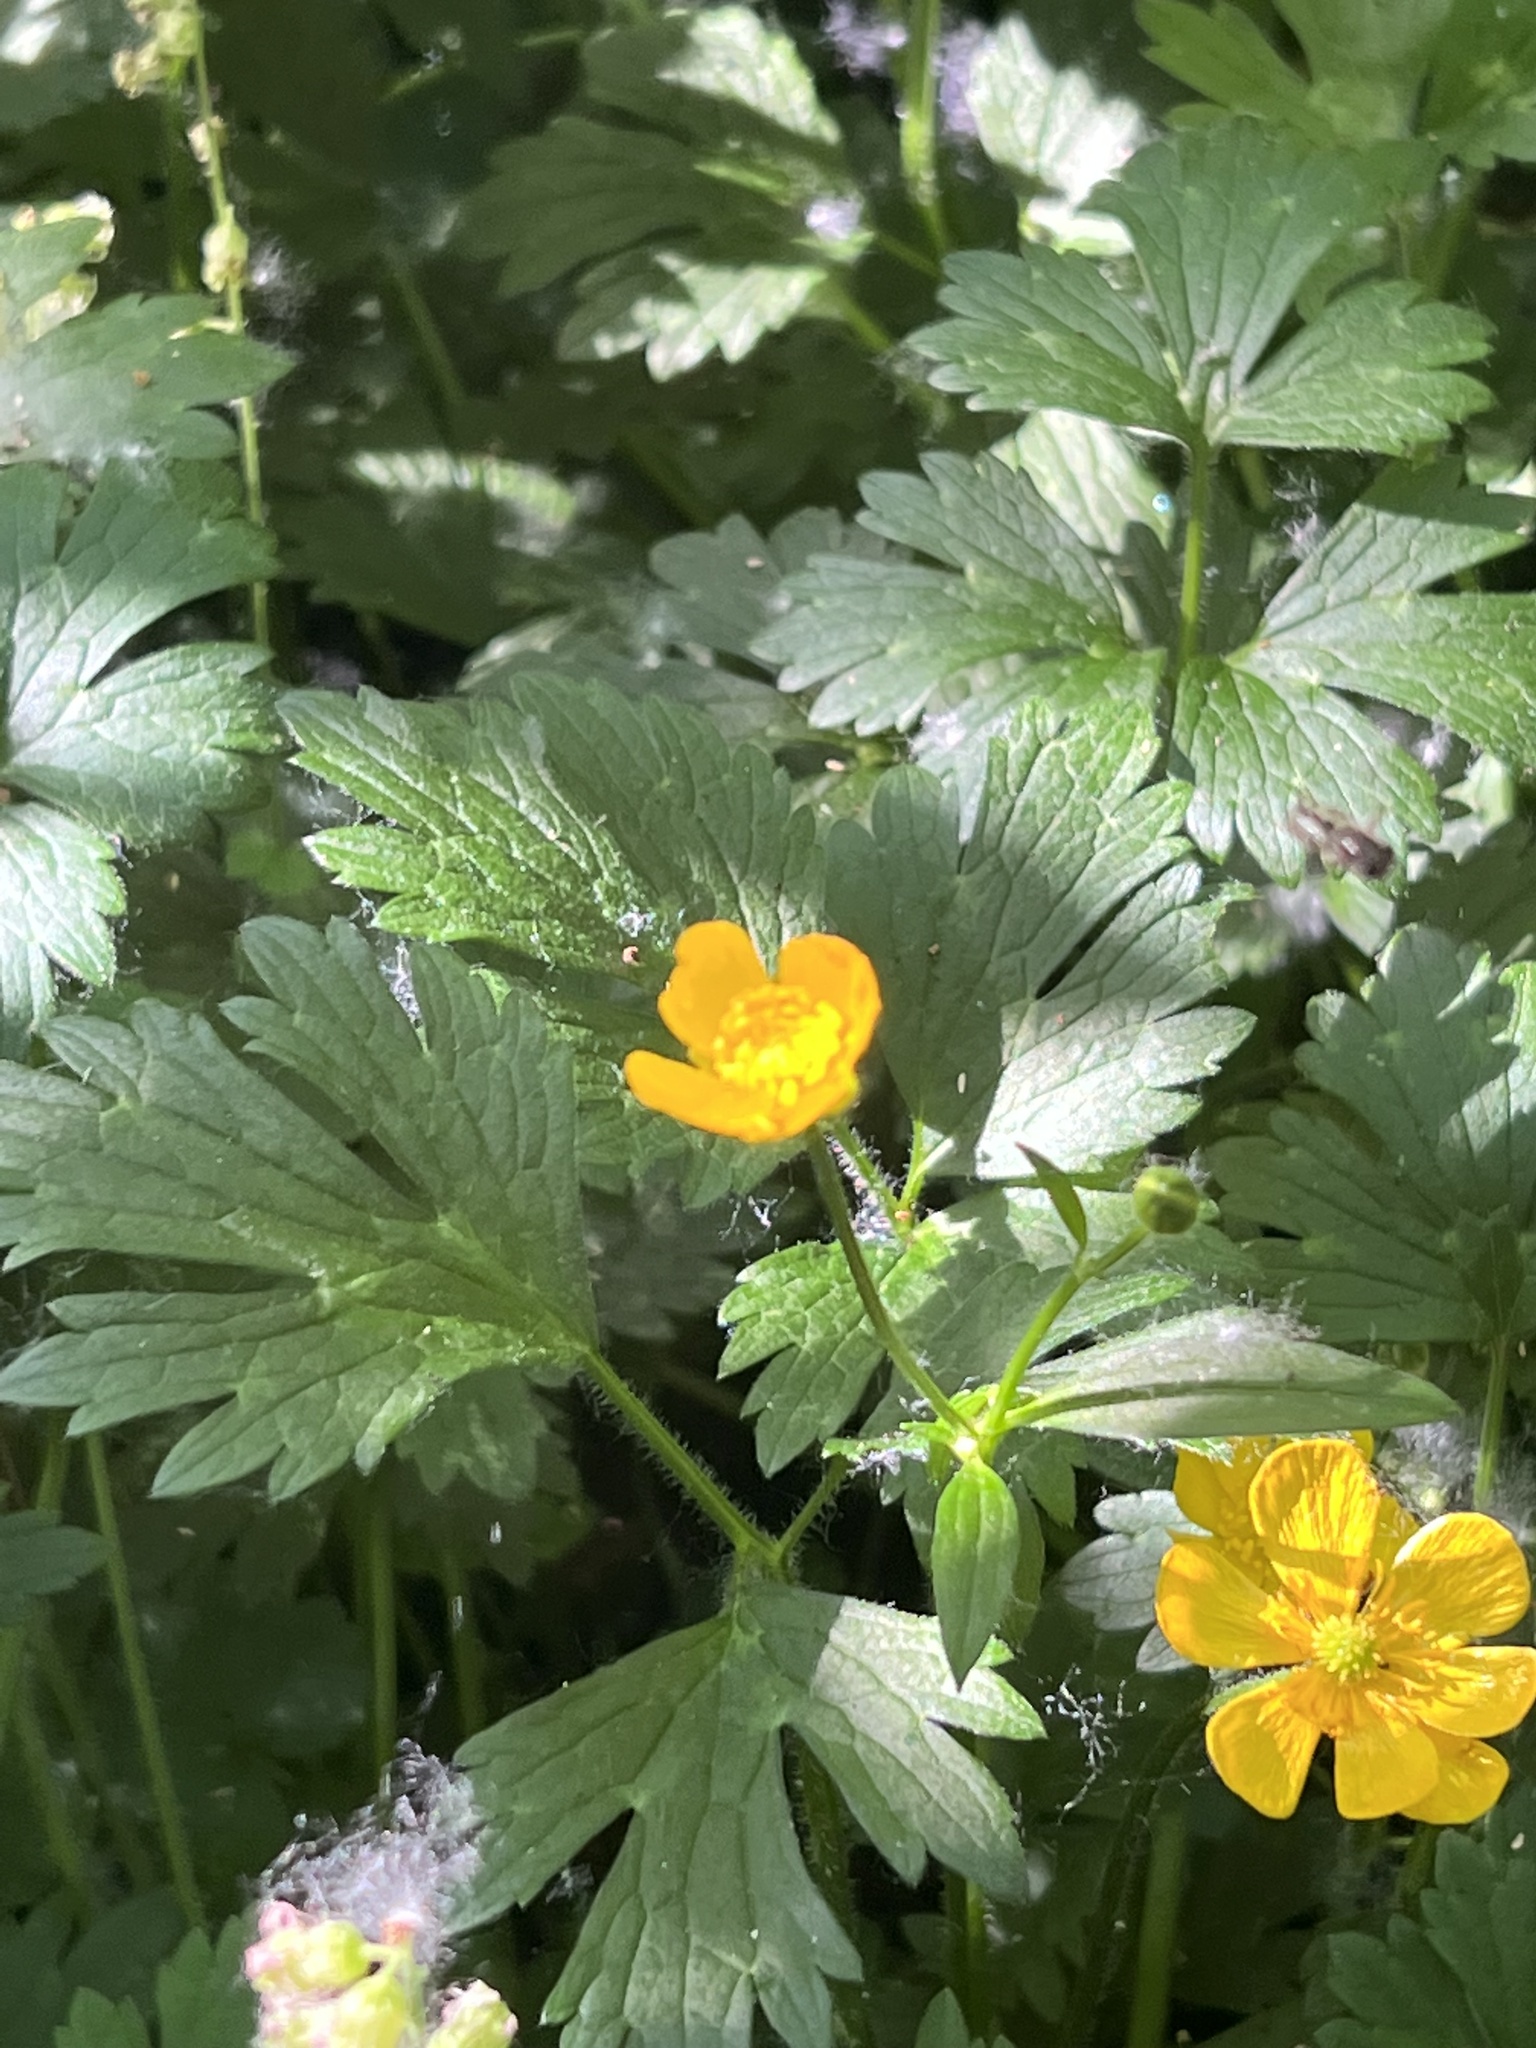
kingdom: Plantae
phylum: Tracheophyta
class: Magnoliopsida
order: Ranunculales
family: Ranunculaceae
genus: Ranunculus
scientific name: Ranunculus repens
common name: Creeping buttercup
